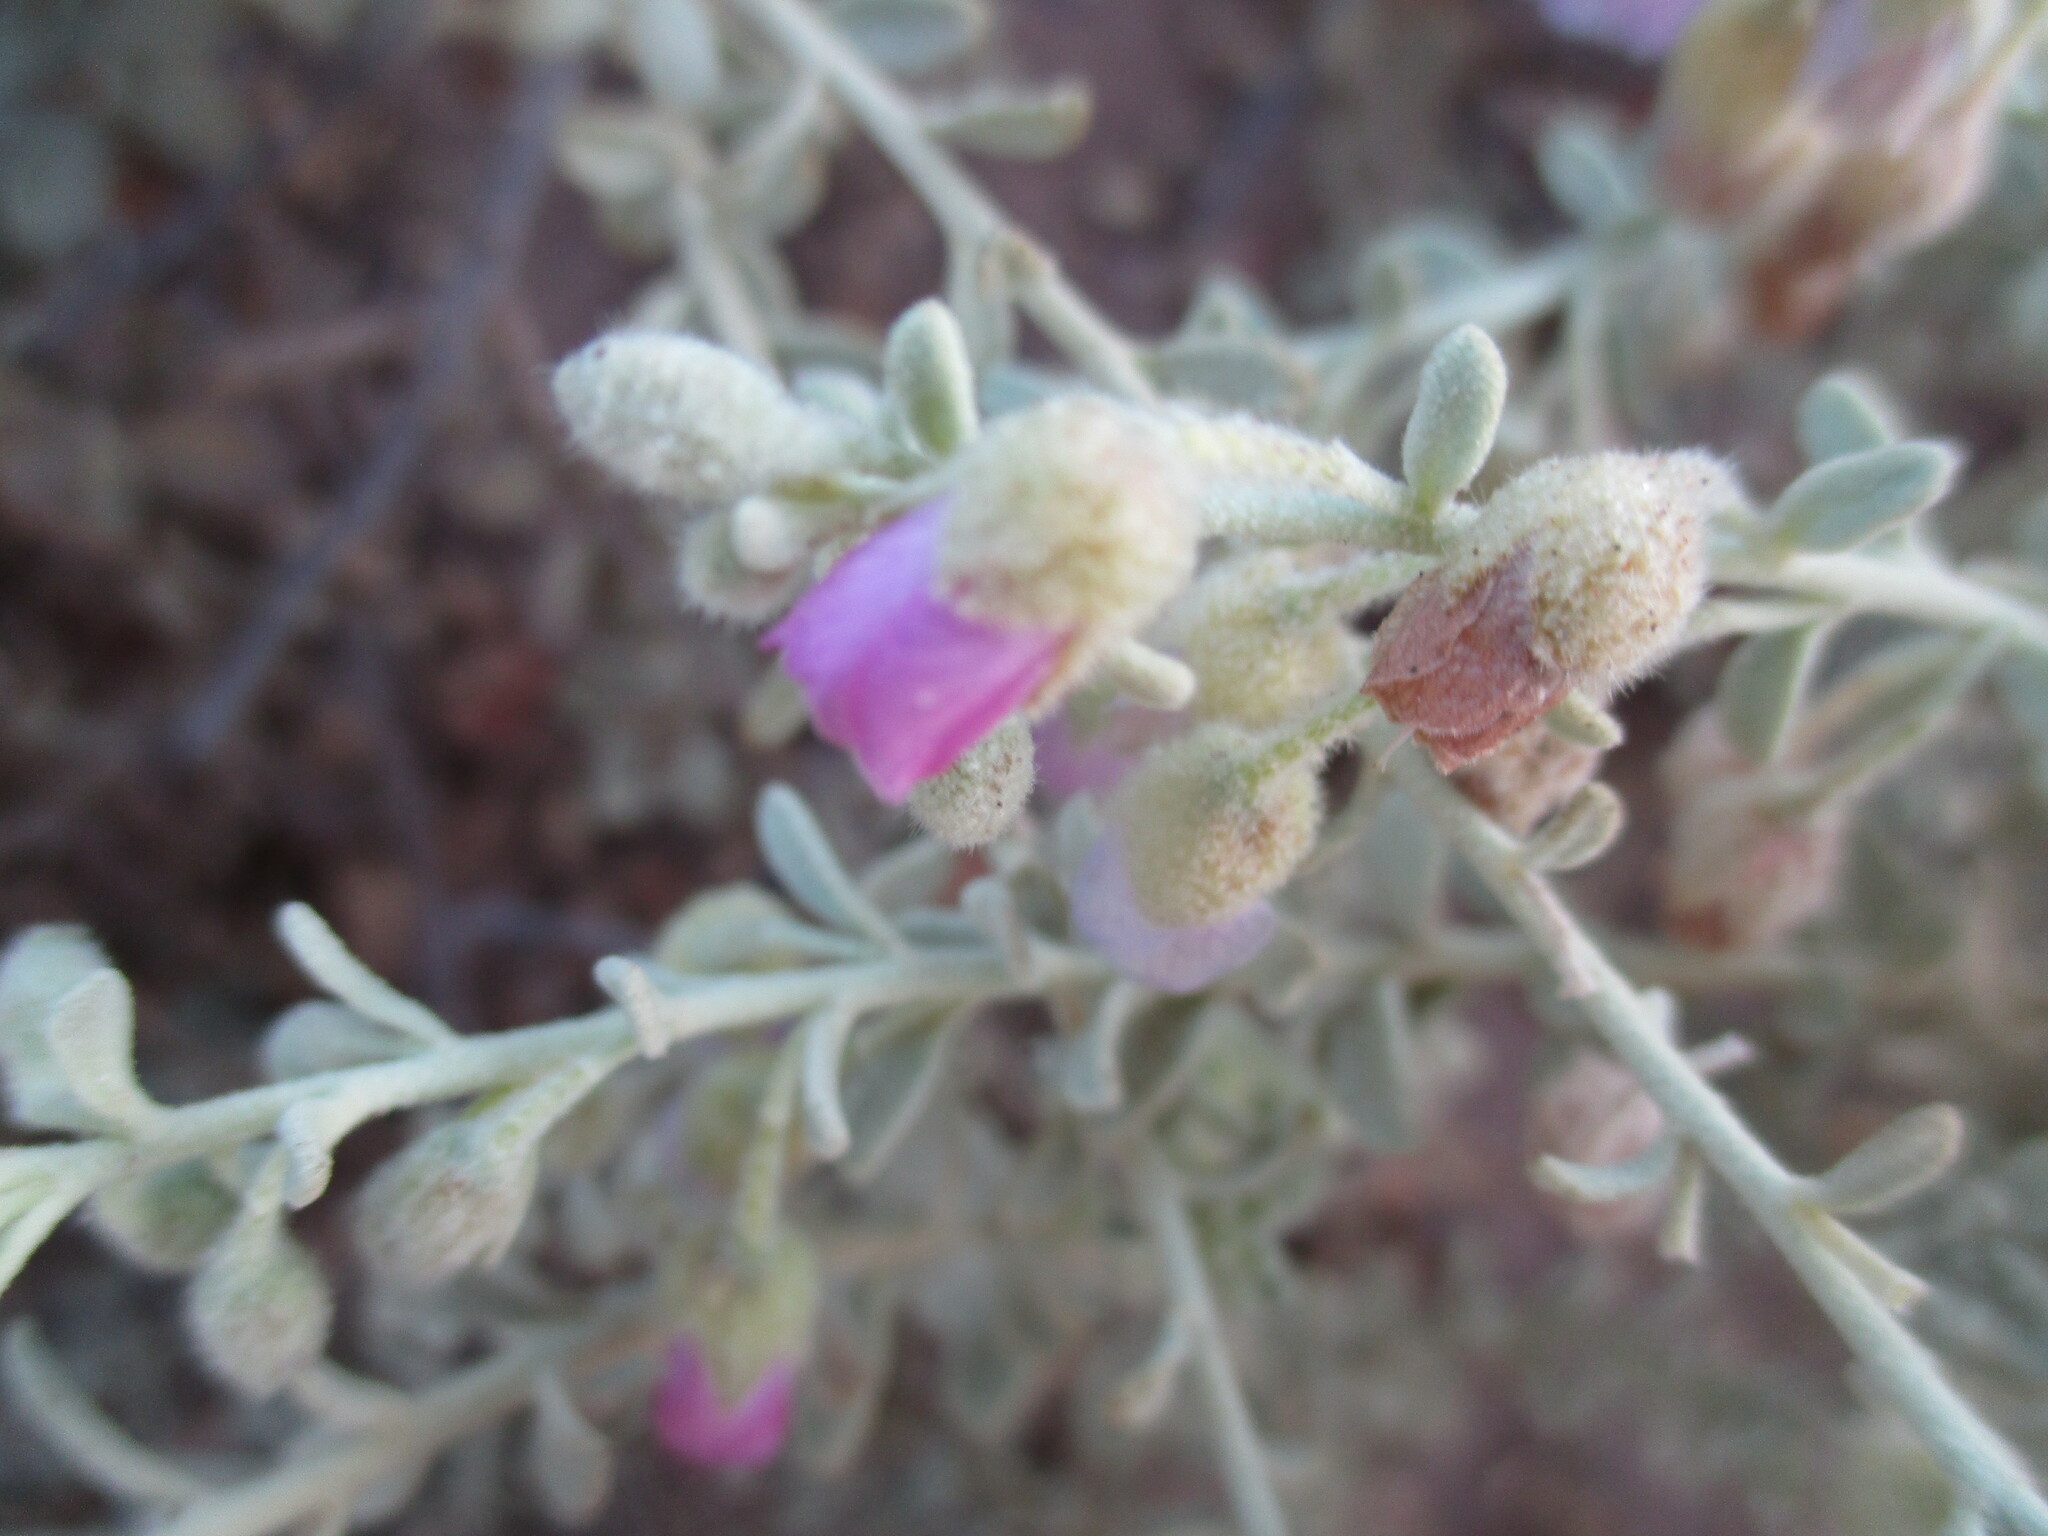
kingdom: Plantae
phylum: Tracheophyta
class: Magnoliopsida
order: Malvales
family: Malvaceae
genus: Hermannia
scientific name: Hermannia glandulossisima
